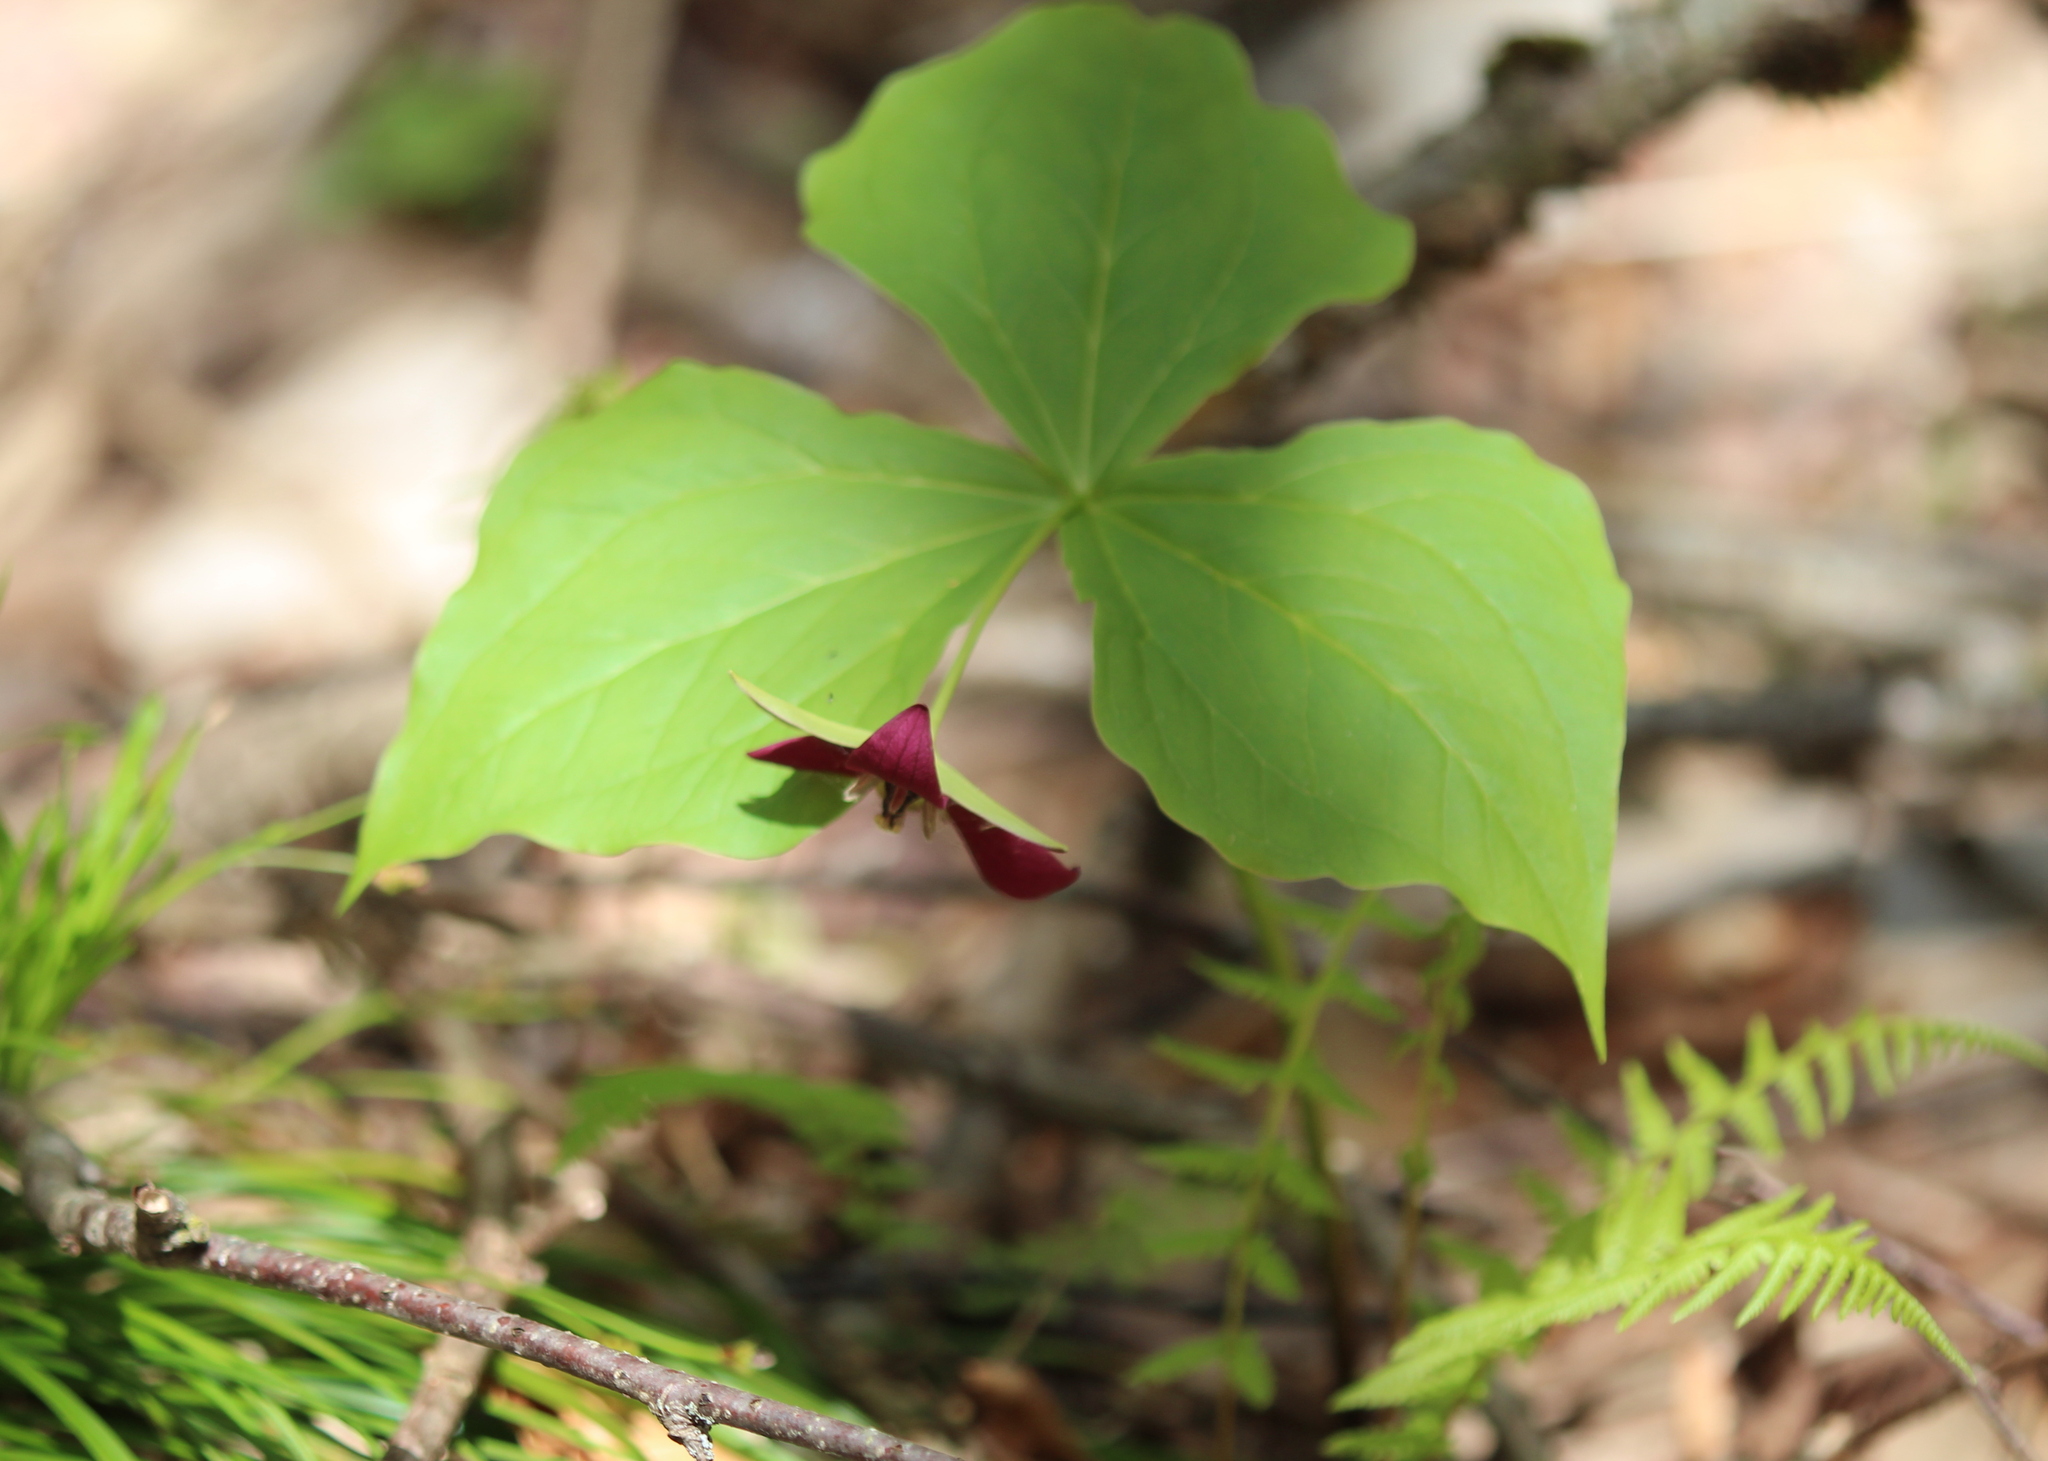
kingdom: Plantae
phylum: Tracheophyta
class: Liliopsida
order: Liliales
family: Melanthiaceae
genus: Trillium
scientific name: Trillium erectum
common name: Purple trillium
